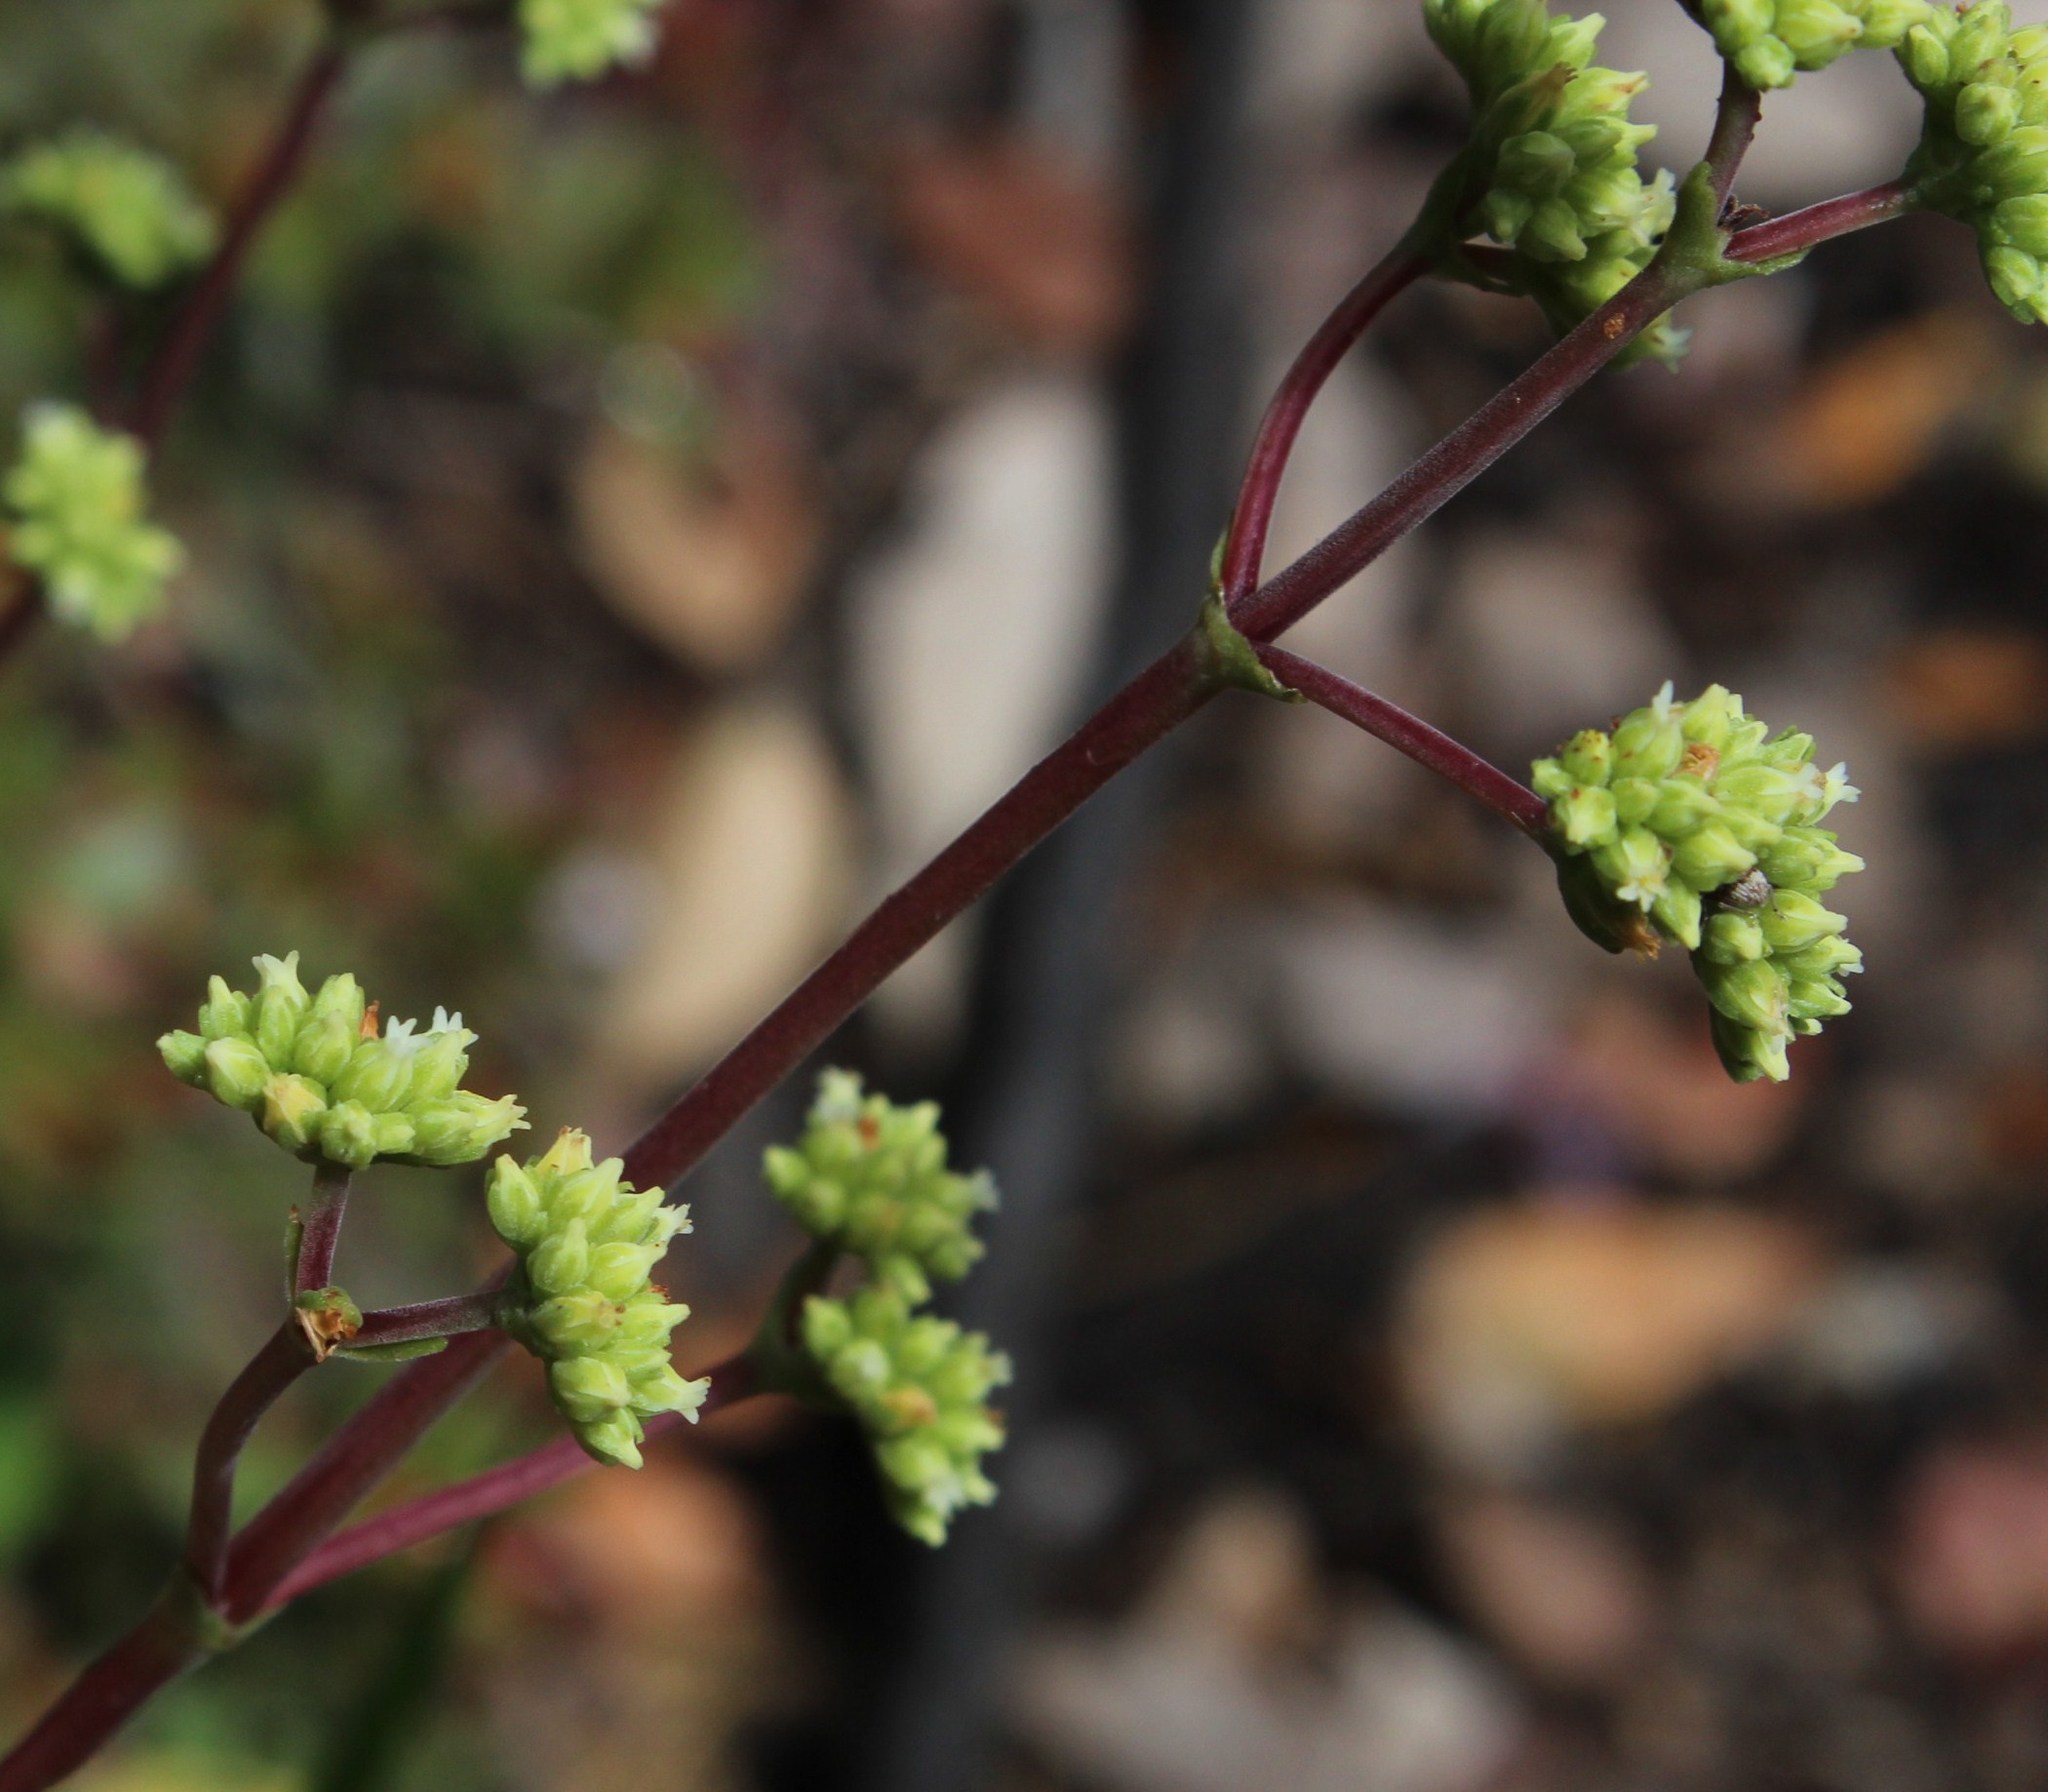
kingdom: Plantae
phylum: Tracheophyta
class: Magnoliopsida
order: Saxifragales
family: Crassulaceae
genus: Crassula
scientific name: Crassula atropurpurea
